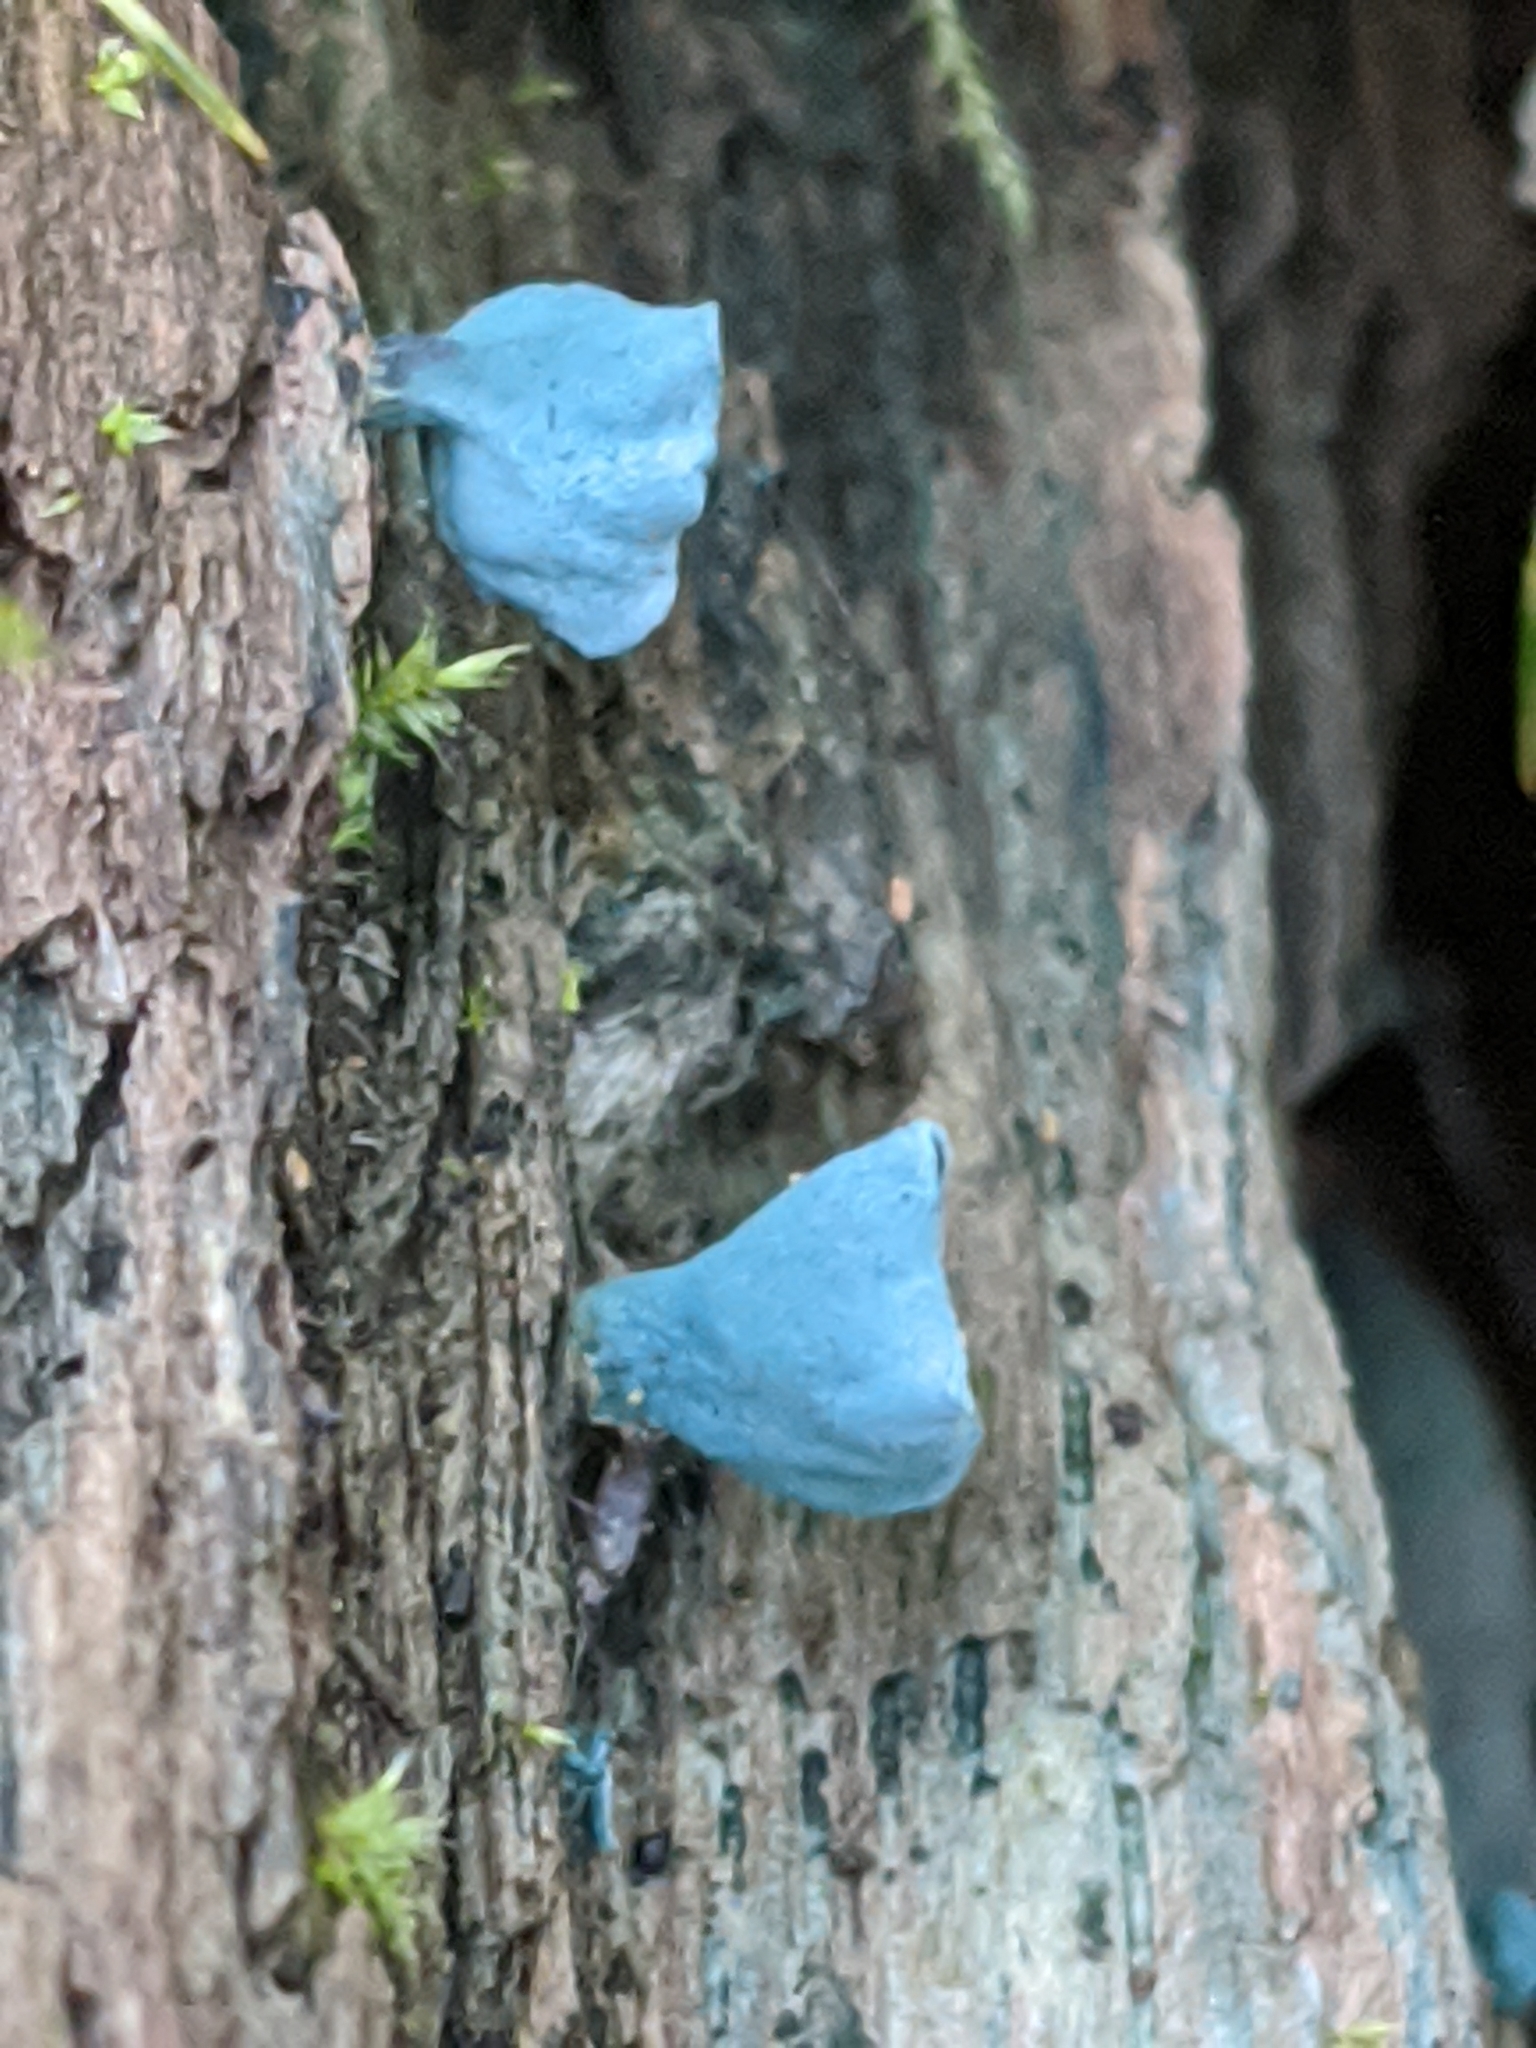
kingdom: Fungi
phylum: Ascomycota
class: Leotiomycetes
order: Helotiales
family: Chlorociboriaceae
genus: Chlorociboria
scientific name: Chlorociboria aeruginascens
